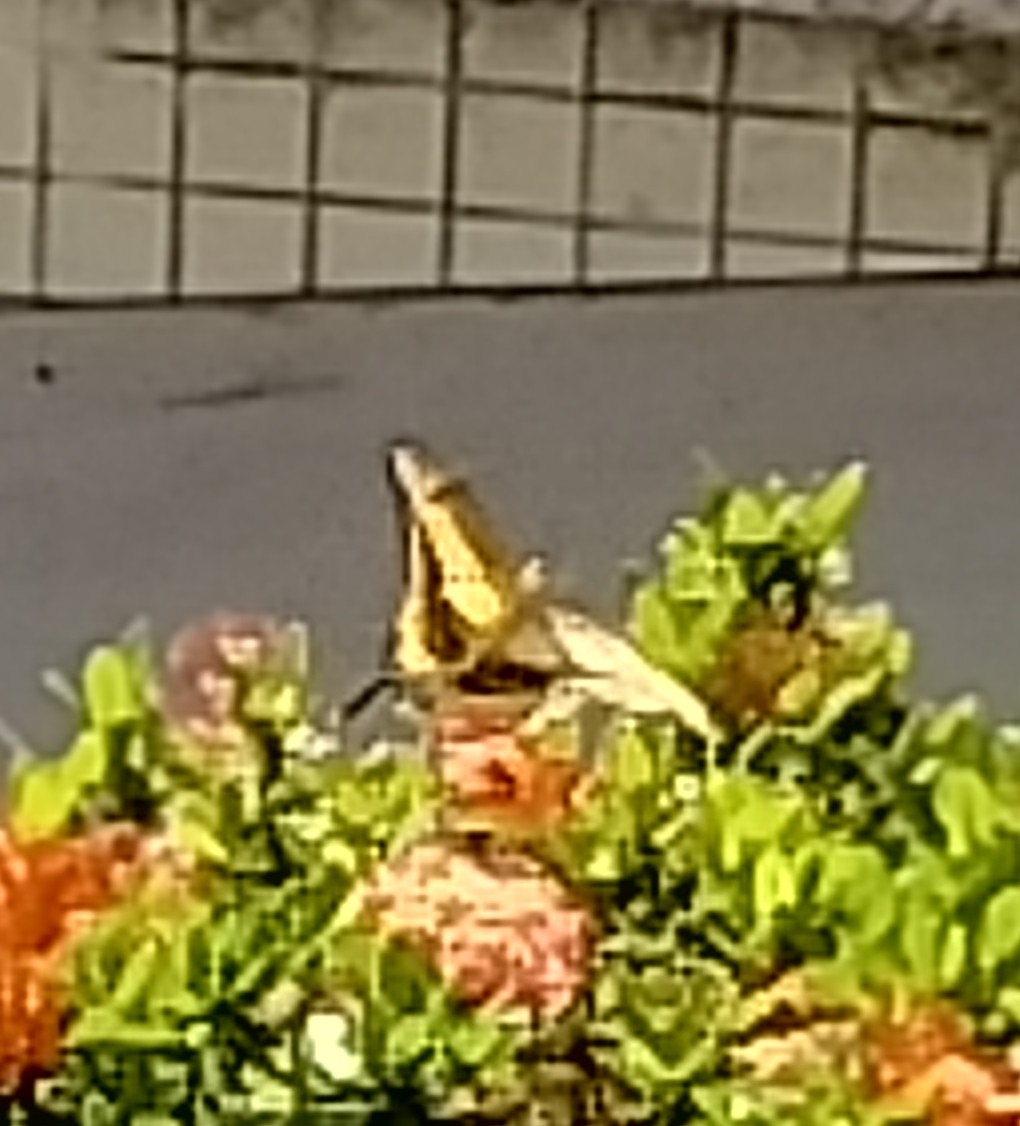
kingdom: Animalia
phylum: Arthropoda
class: Insecta
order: Lepidoptera
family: Papilionidae
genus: Papilio
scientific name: Papilio thoas
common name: King swallowtail
